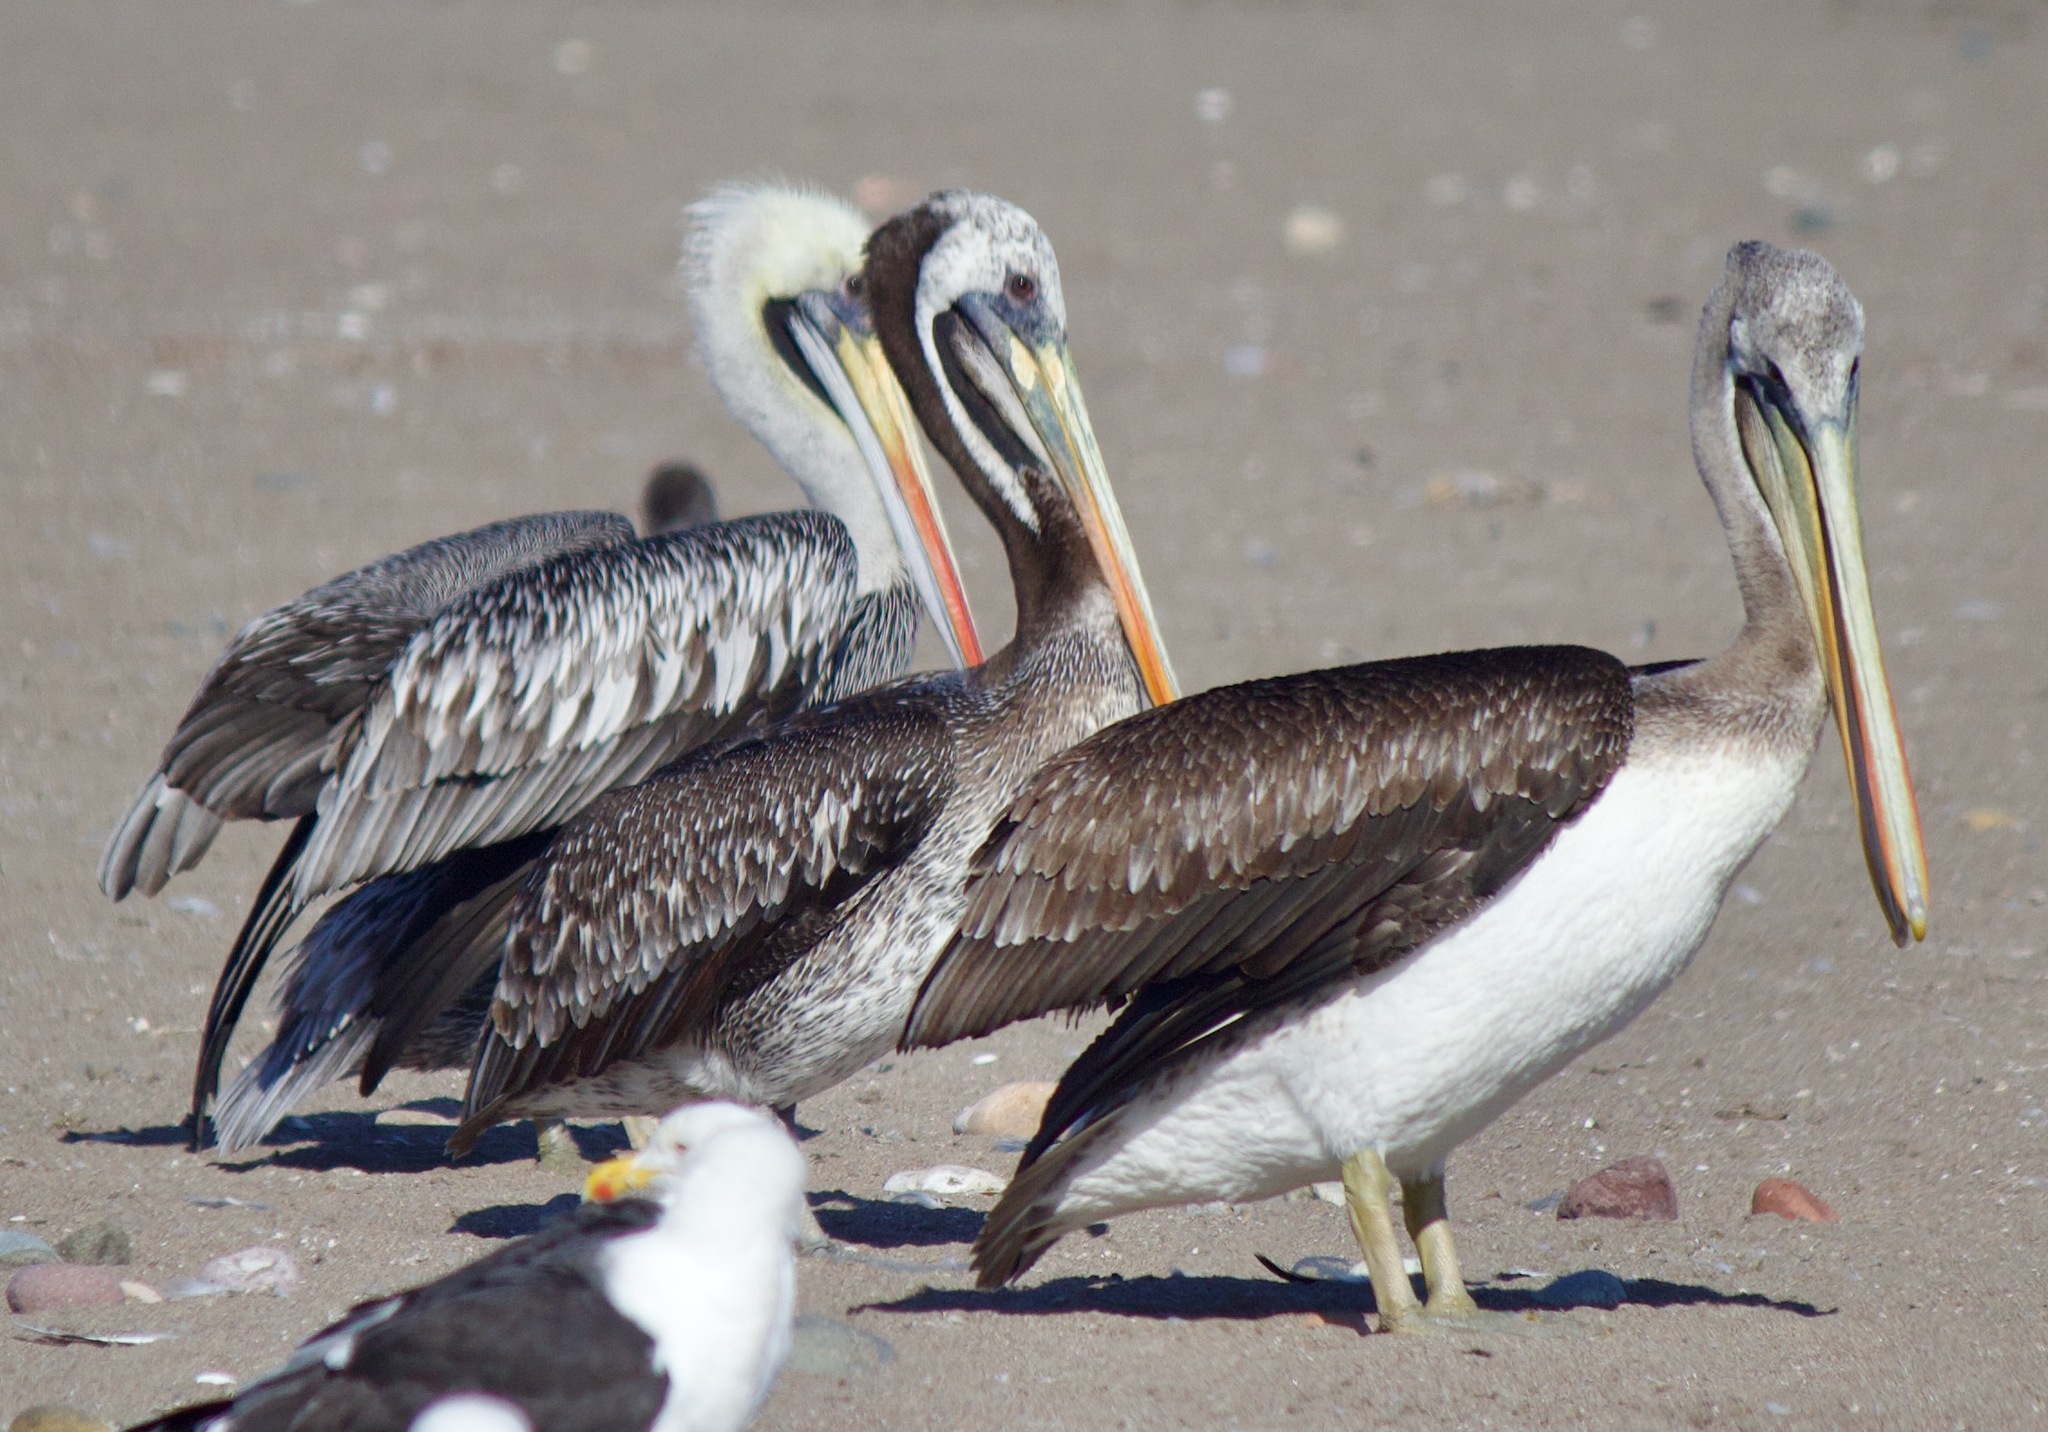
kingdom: Animalia
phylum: Chordata
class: Aves
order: Pelecaniformes
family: Pelecanidae
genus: Pelecanus
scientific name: Pelecanus thagus
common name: Peruvian pelican
